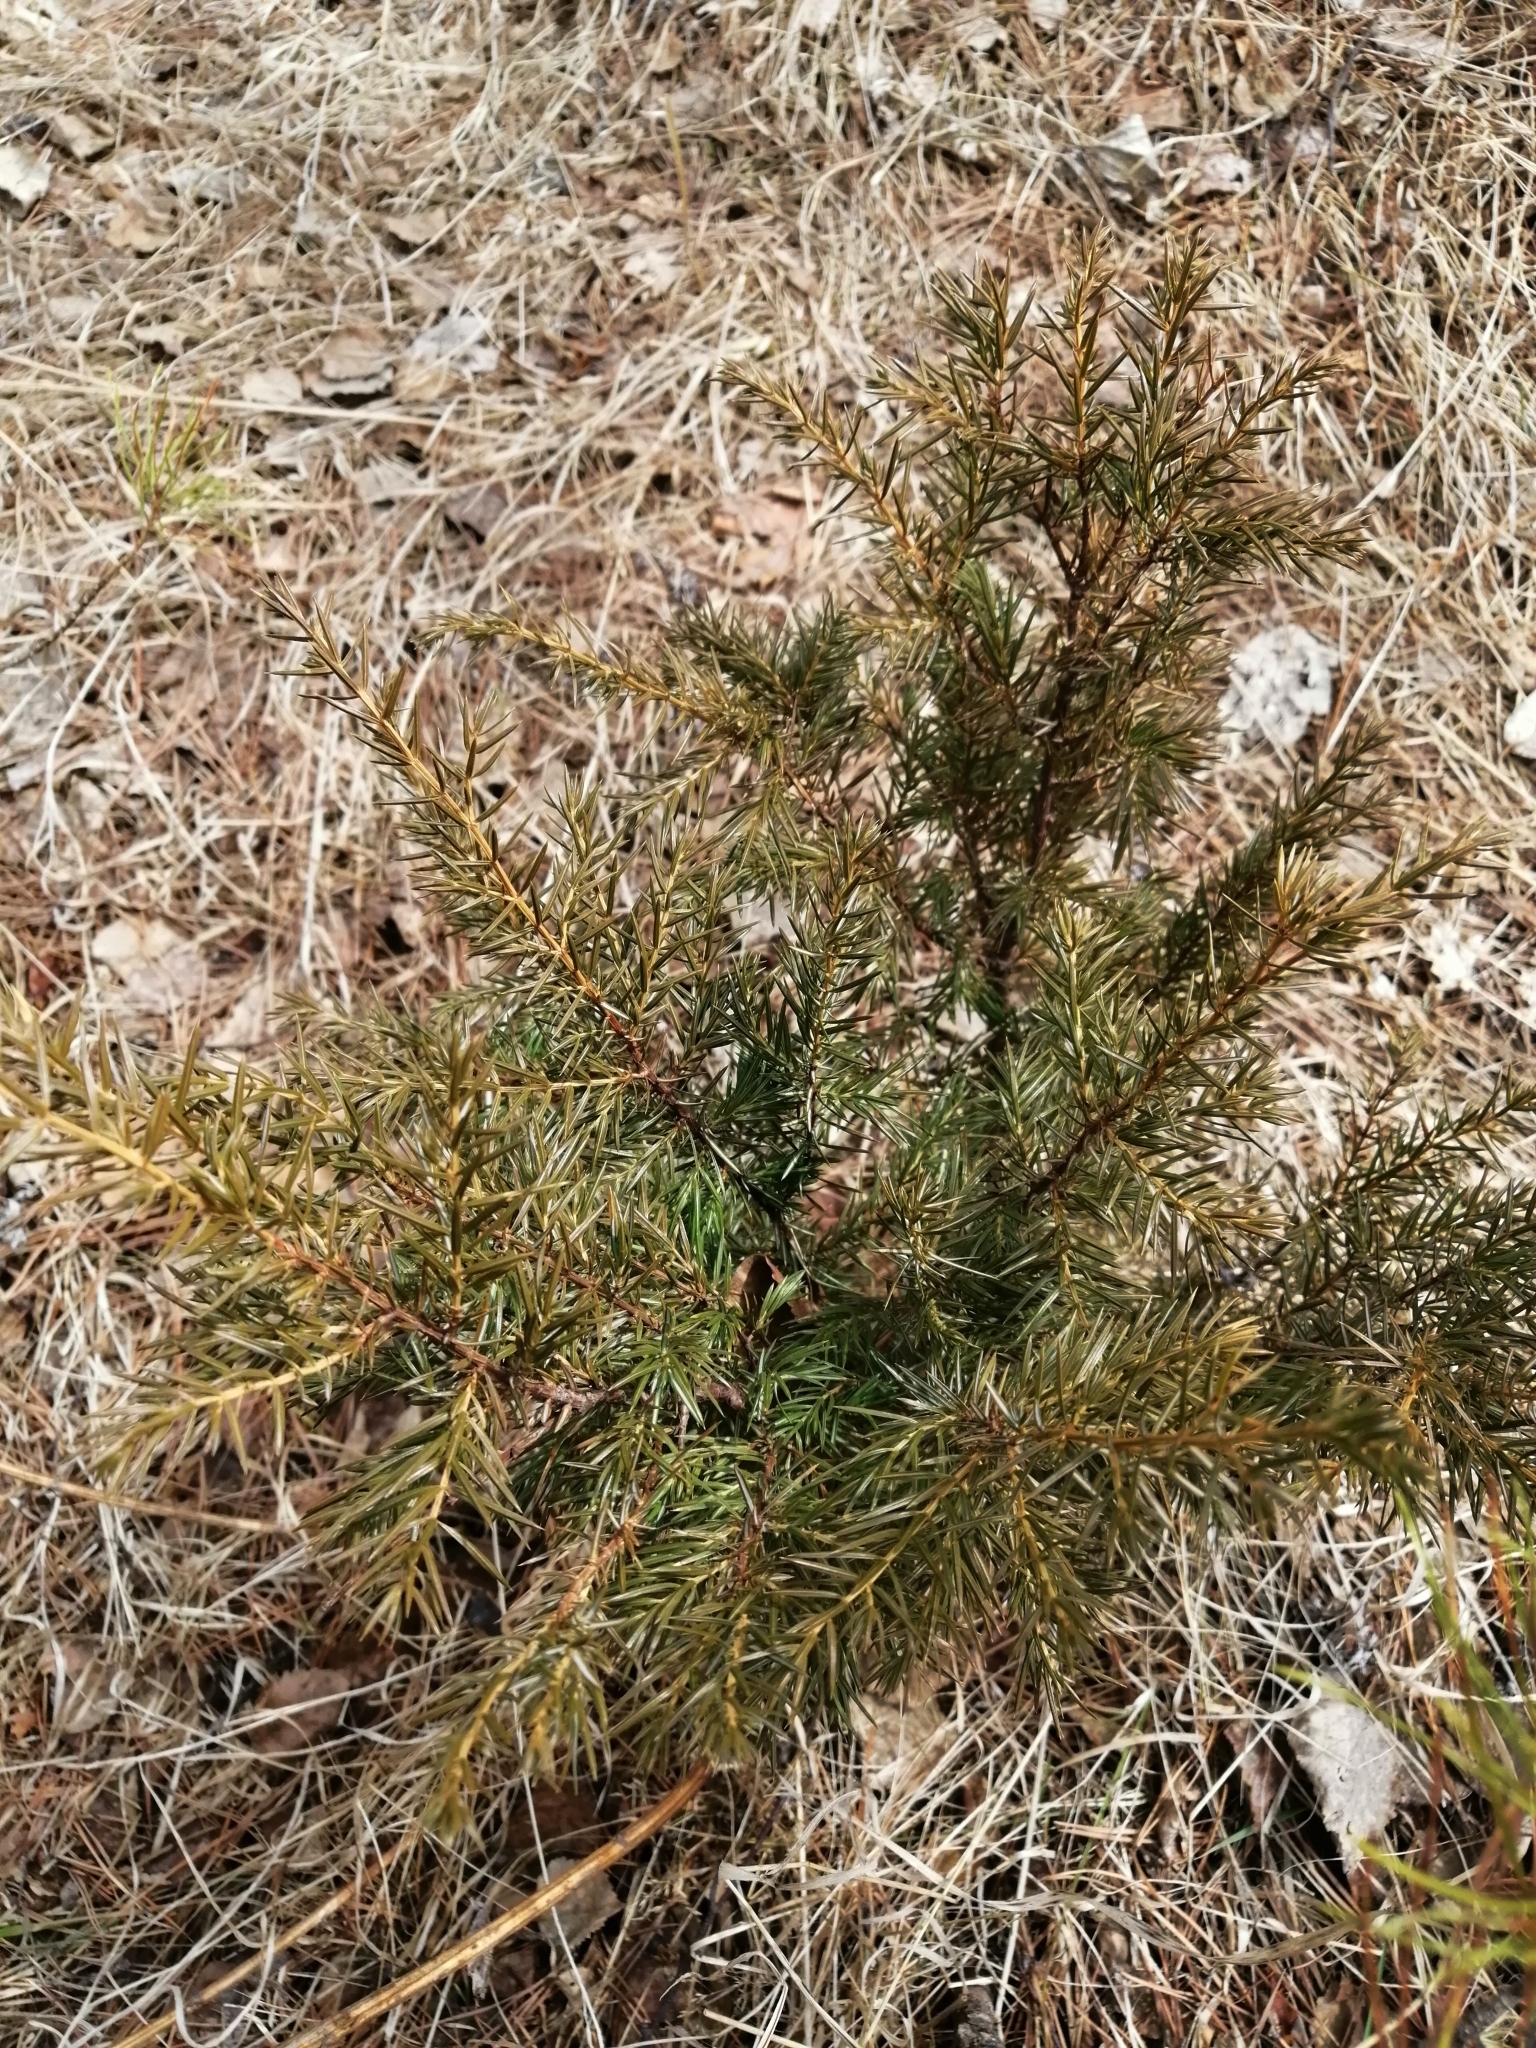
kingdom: Plantae
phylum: Tracheophyta
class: Pinopsida
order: Pinales
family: Cupressaceae
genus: Juniperus
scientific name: Juniperus communis
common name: Common juniper
